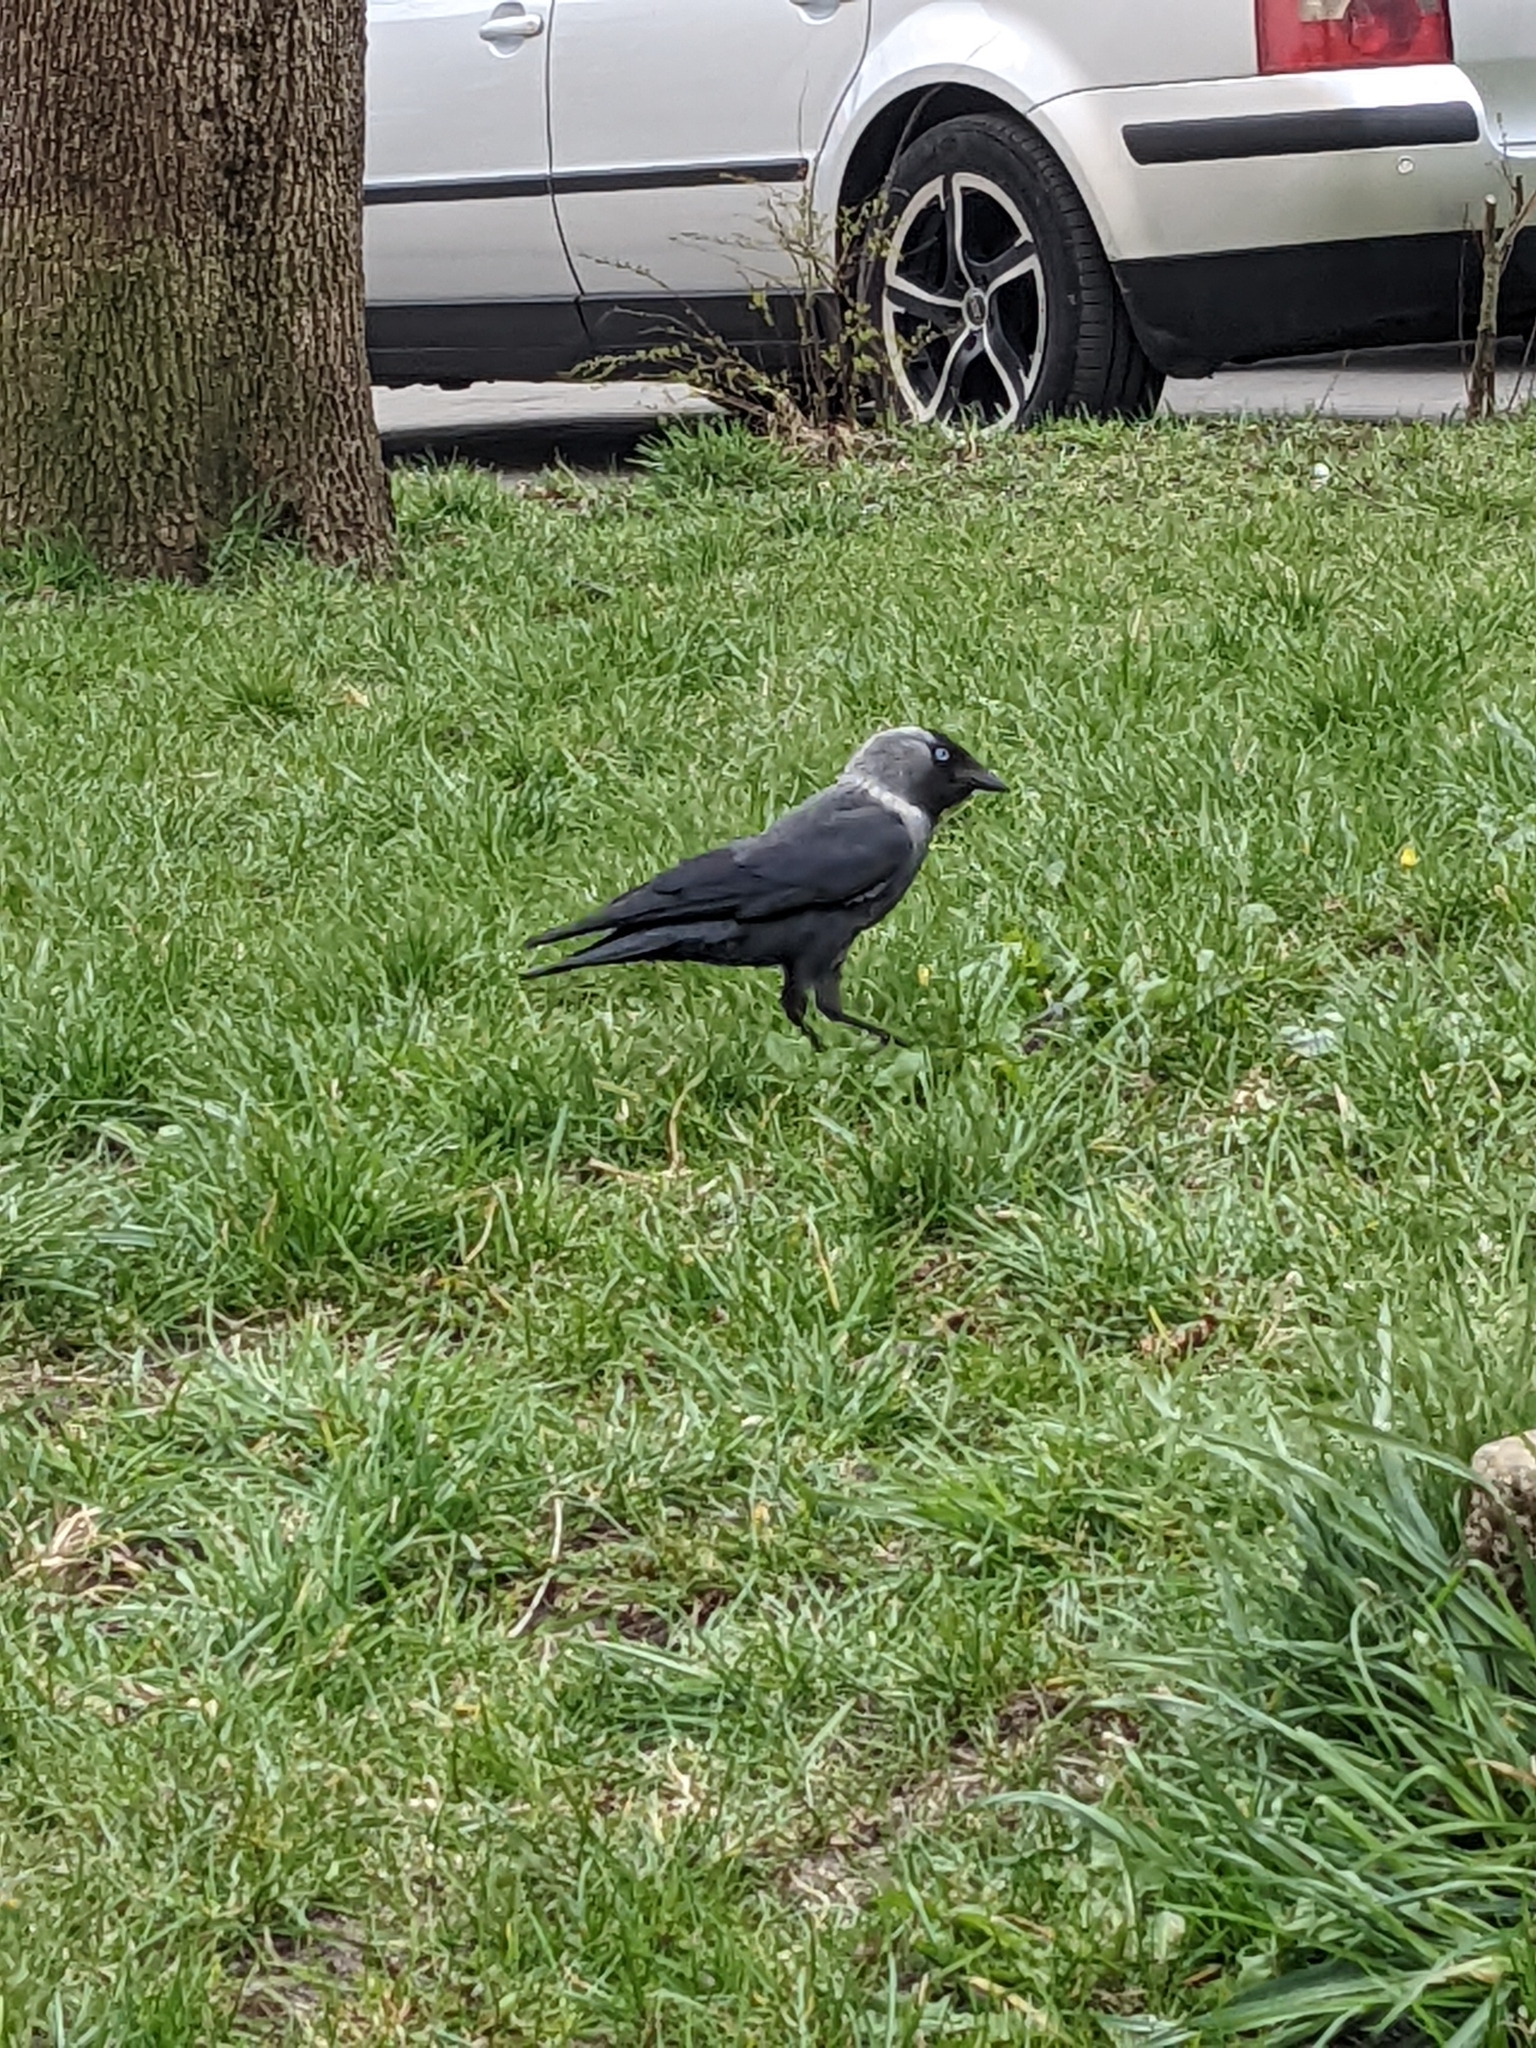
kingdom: Animalia
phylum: Chordata
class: Aves
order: Passeriformes
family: Corvidae
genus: Coloeus
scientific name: Coloeus monedula
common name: Western jackdaw
